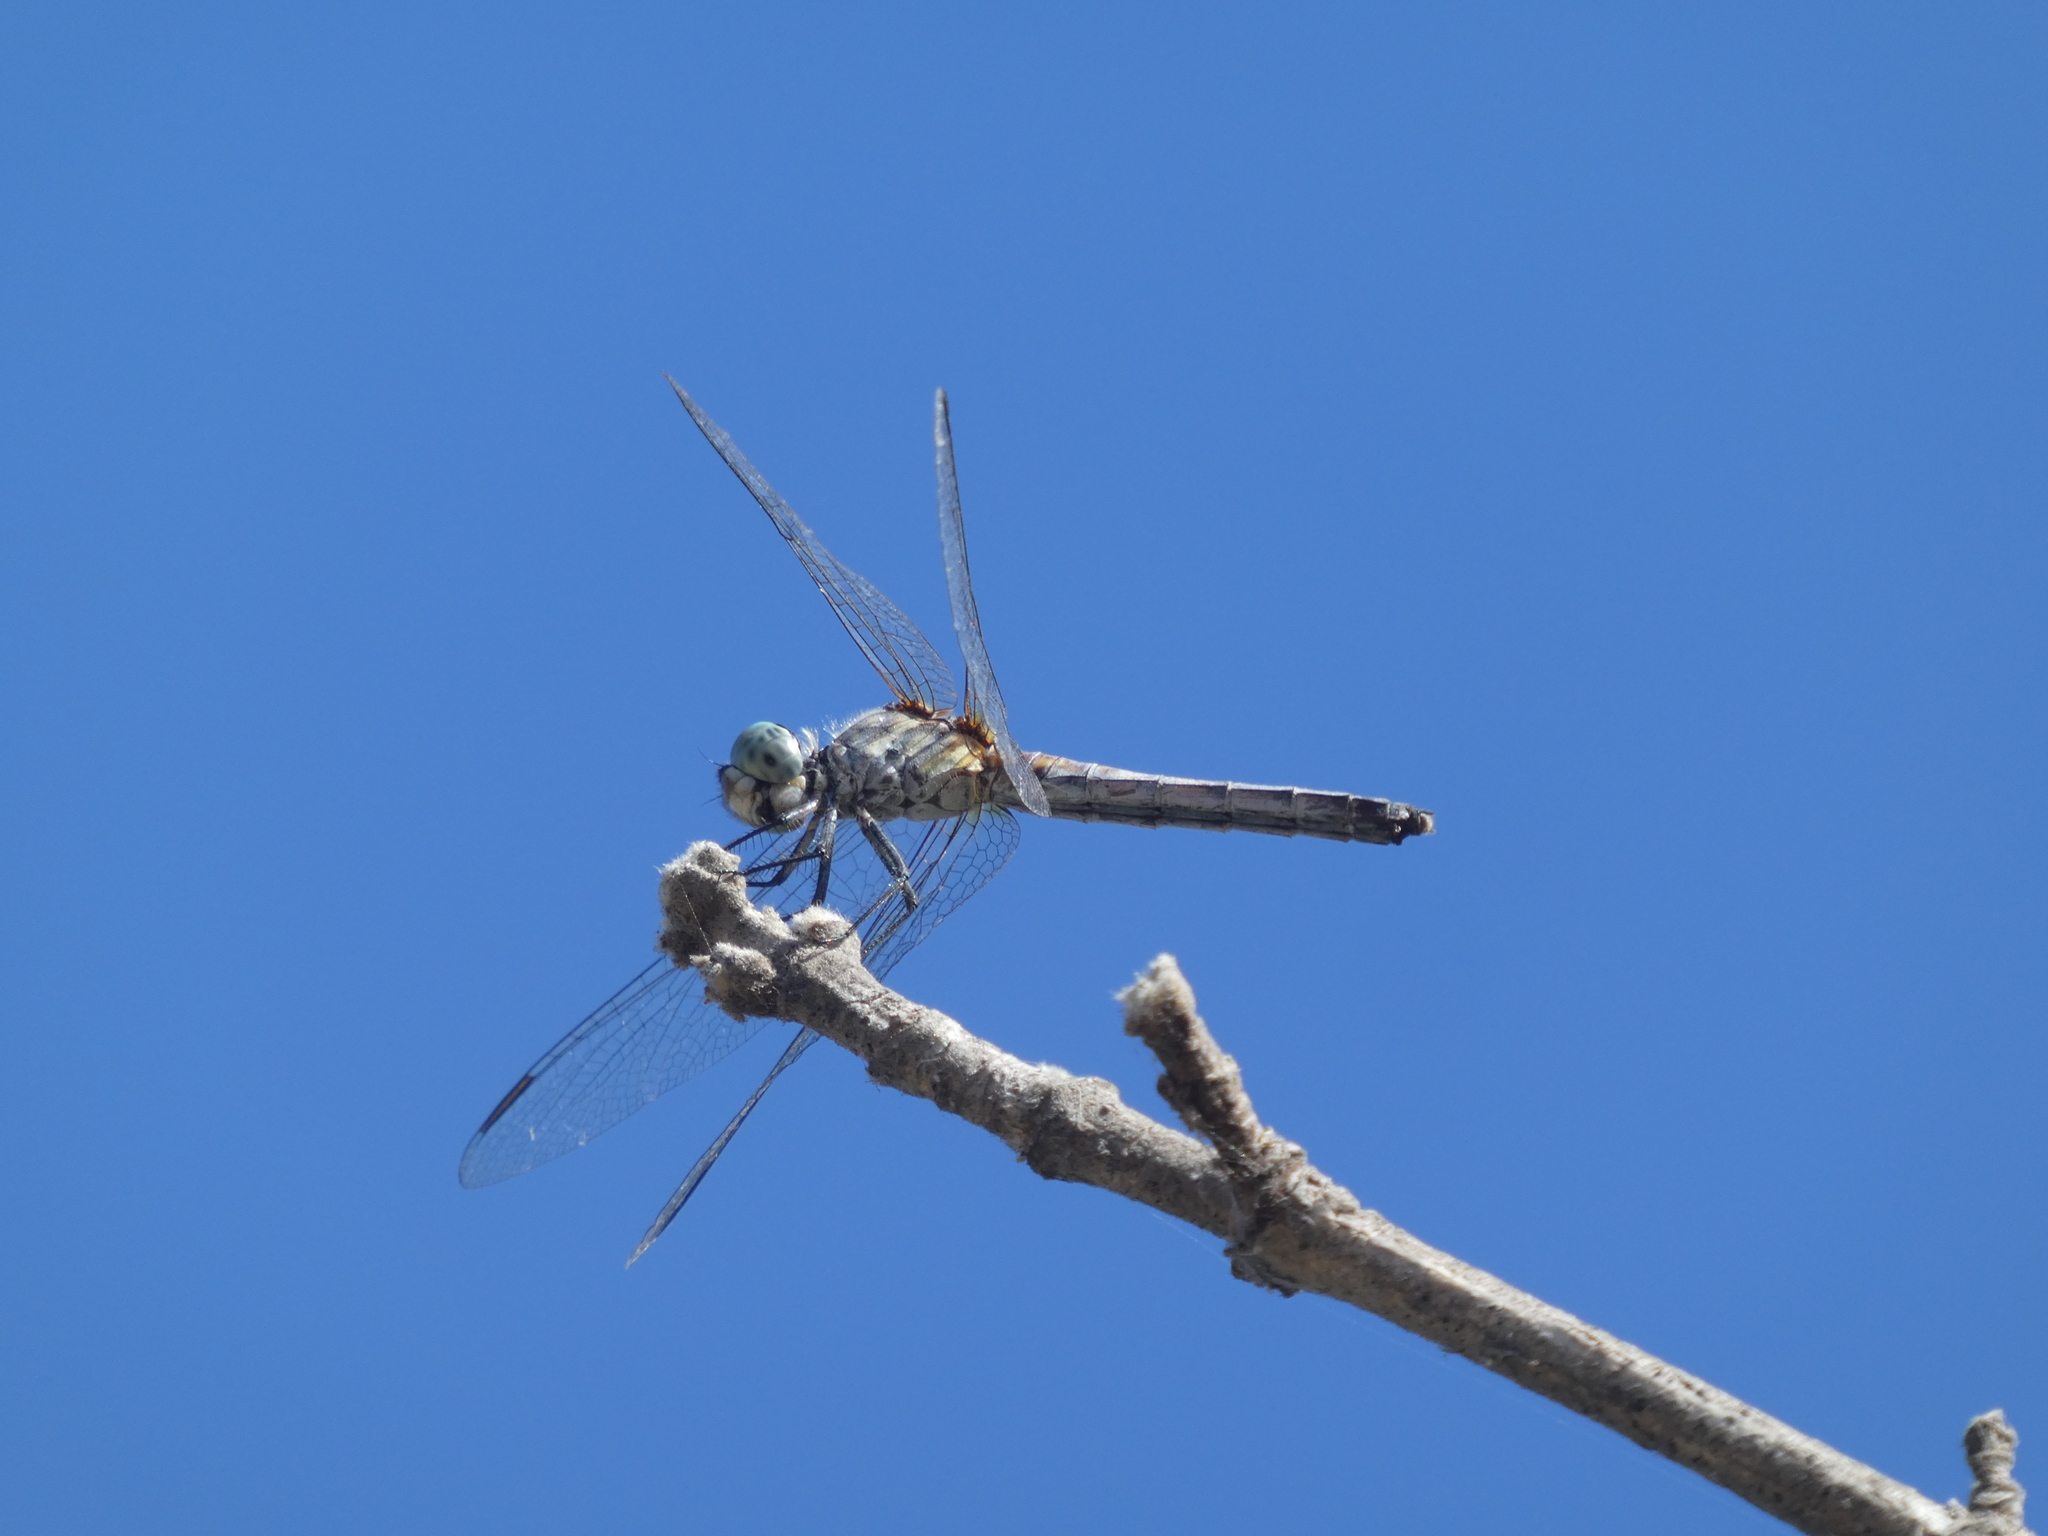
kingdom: Animalia
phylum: Arthropoda
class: Insecta
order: Odonata
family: Libellulidae
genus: Pachydiplax
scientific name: Pachydiplax longipennis
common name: Blue dasher
